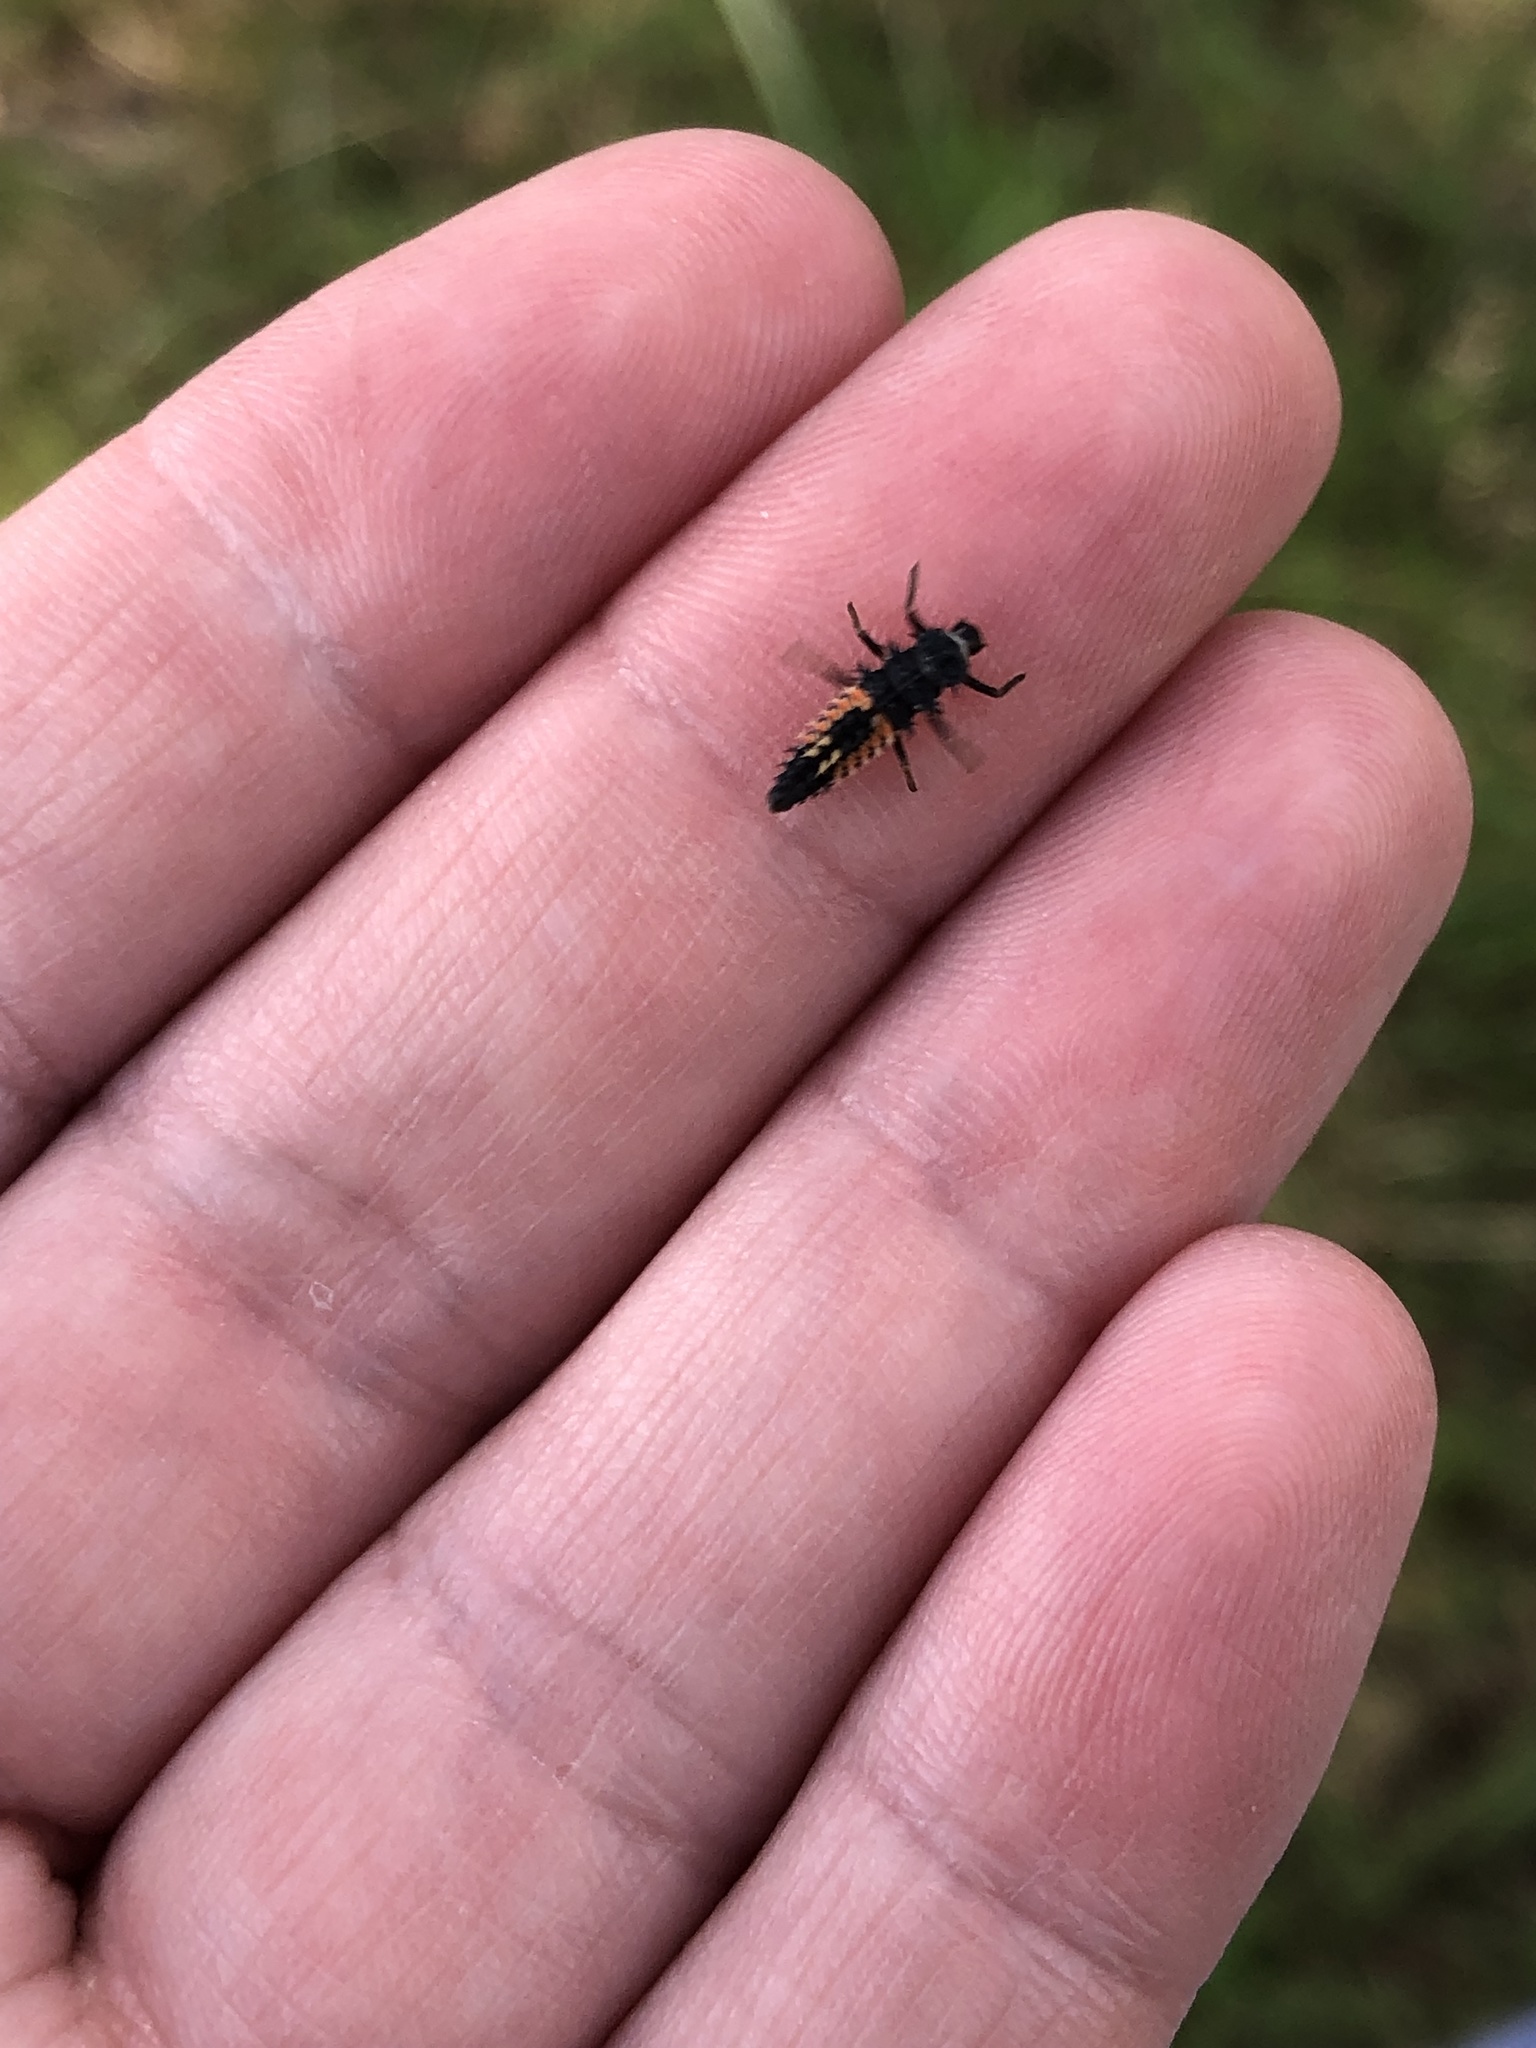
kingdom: Animalia
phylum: Arthropoda
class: Insecta
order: Coleoptera
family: Coccinellidae
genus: Harmonia
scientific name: Harmonia axyridis
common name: Harlequin ladybird
